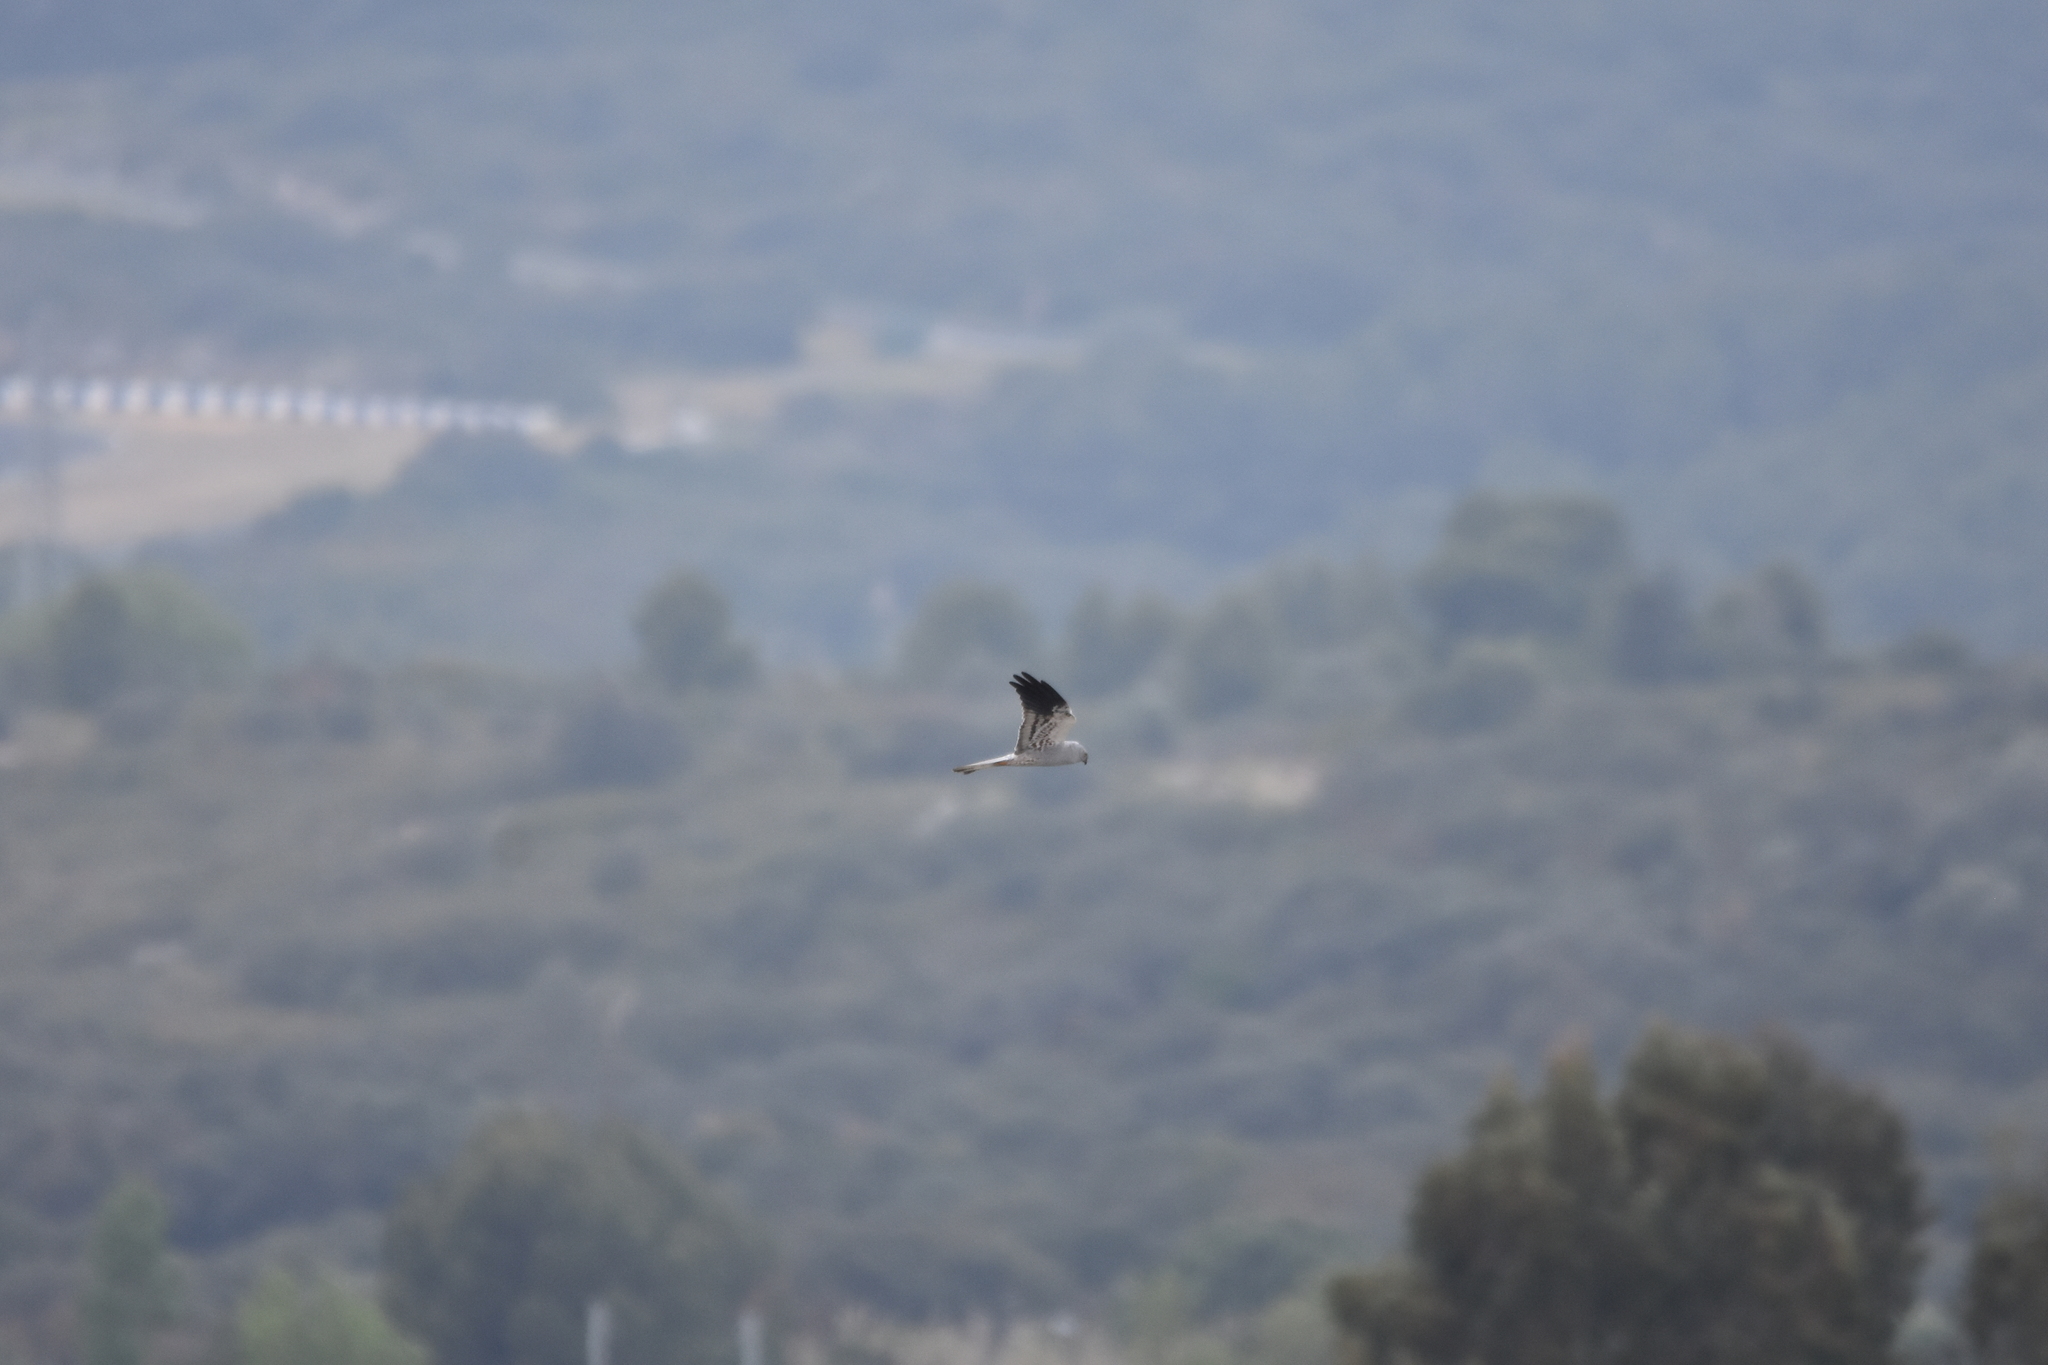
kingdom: Animalia
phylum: Chordata
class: Aves
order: Accipitriformes
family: Accipitridae
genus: Circus
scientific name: Circus pygargus
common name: Montagu's harrier
